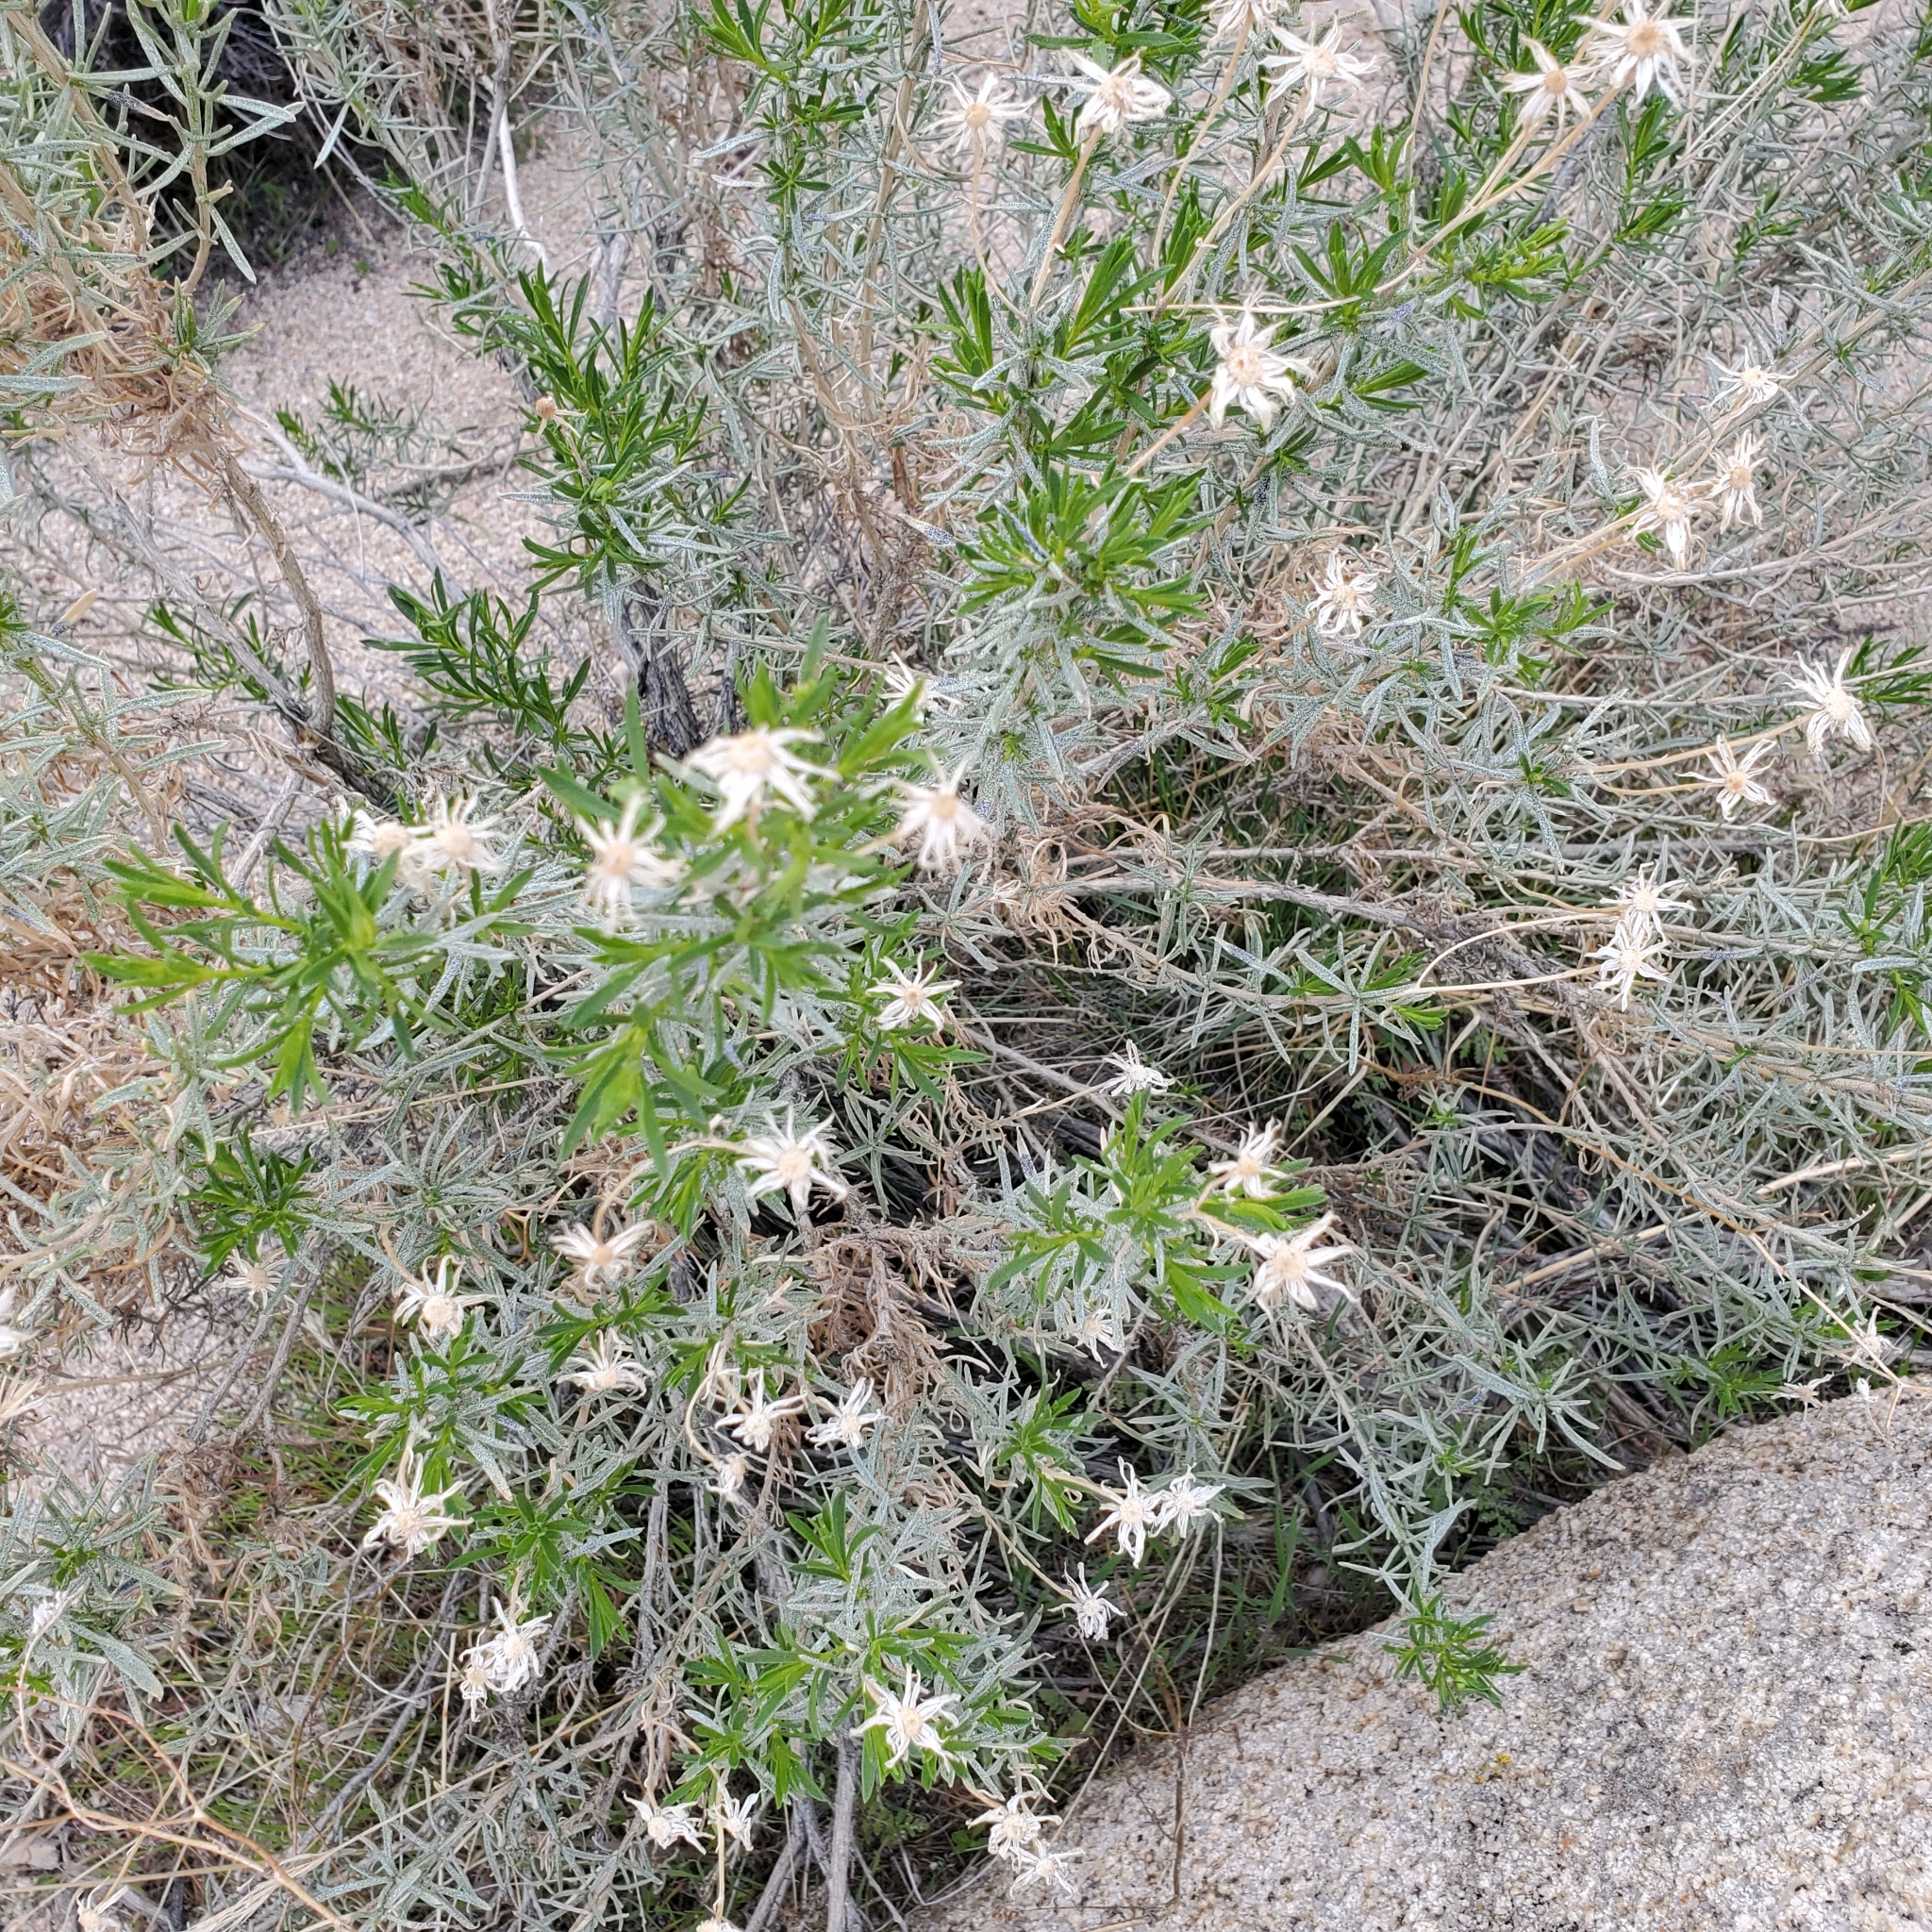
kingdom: Plantae
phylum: Tracheophyta
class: Magnoliopsida
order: Asterales
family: Asteraceae
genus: Ericameria
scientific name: Ericameria linearifolia
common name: Interior goldenbush
